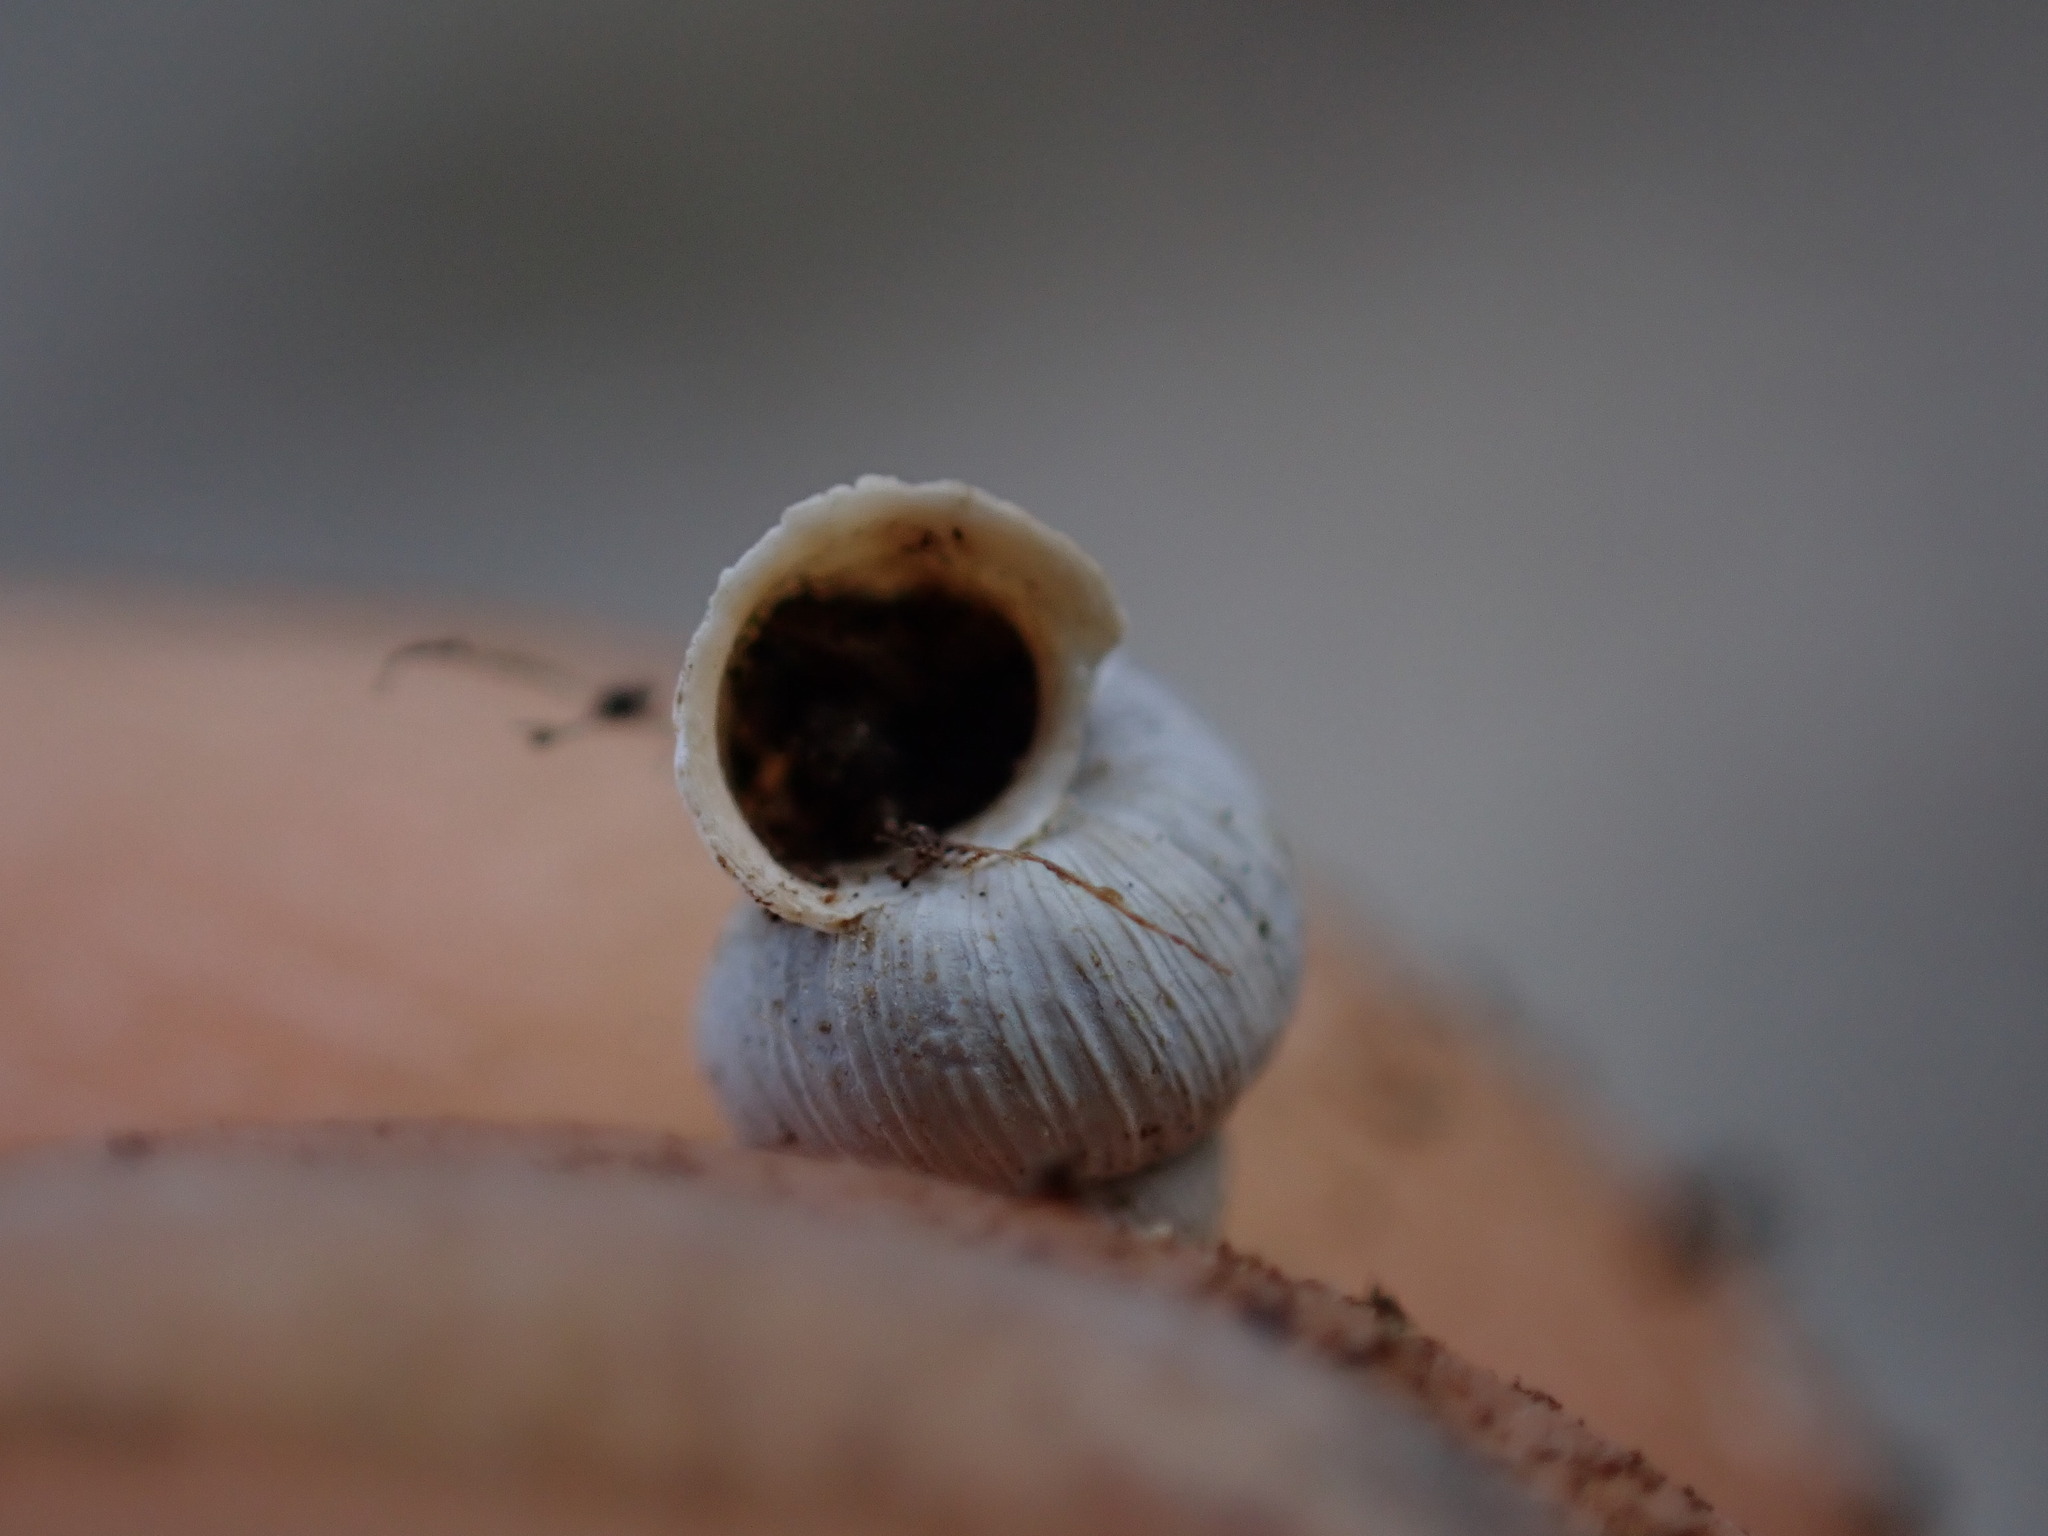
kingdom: Animalia
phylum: Mollusca
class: Gastropoda
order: Architaenioglossa
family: Cochlostomatidae
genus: Cochlostoma
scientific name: Cochlostoma patulum
